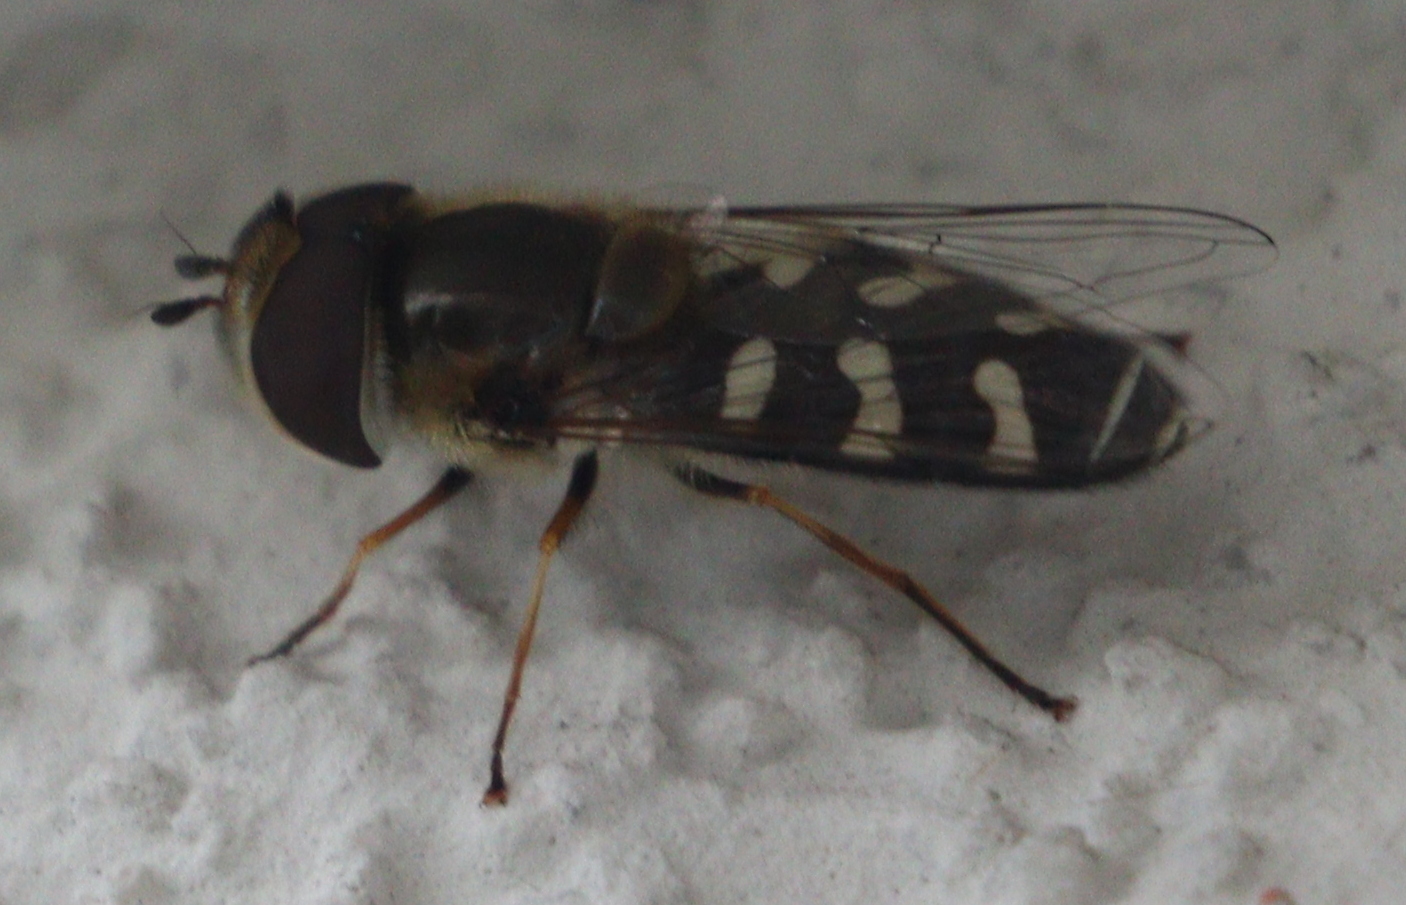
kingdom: Animalia
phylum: Arthropoda
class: Insecta
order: Diptera
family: Syrphidae
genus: Scaeva
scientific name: Scaeva pyrastri
